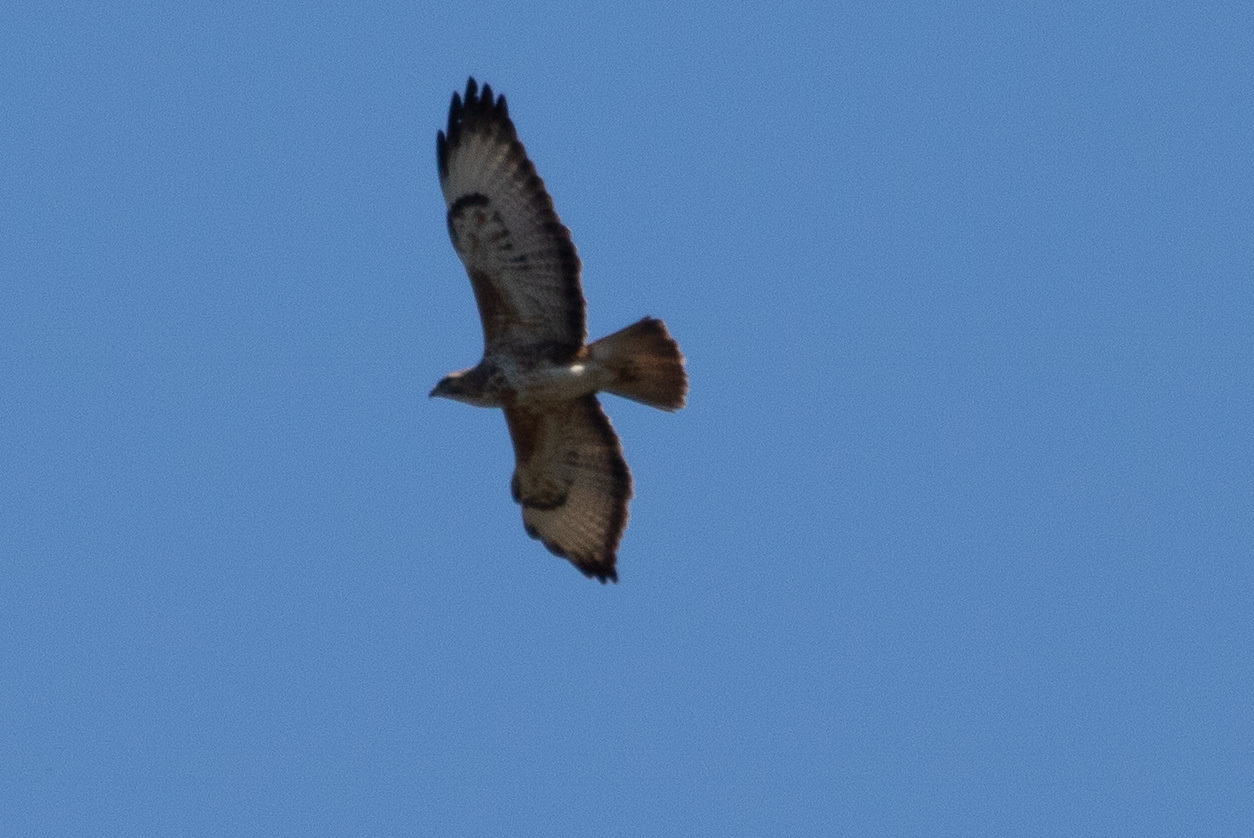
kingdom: Animalia
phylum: Chordata
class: Aves
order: Accipitriformes
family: Accipitridae
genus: Buteo
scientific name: Buteo buteo
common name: Common buzzard
